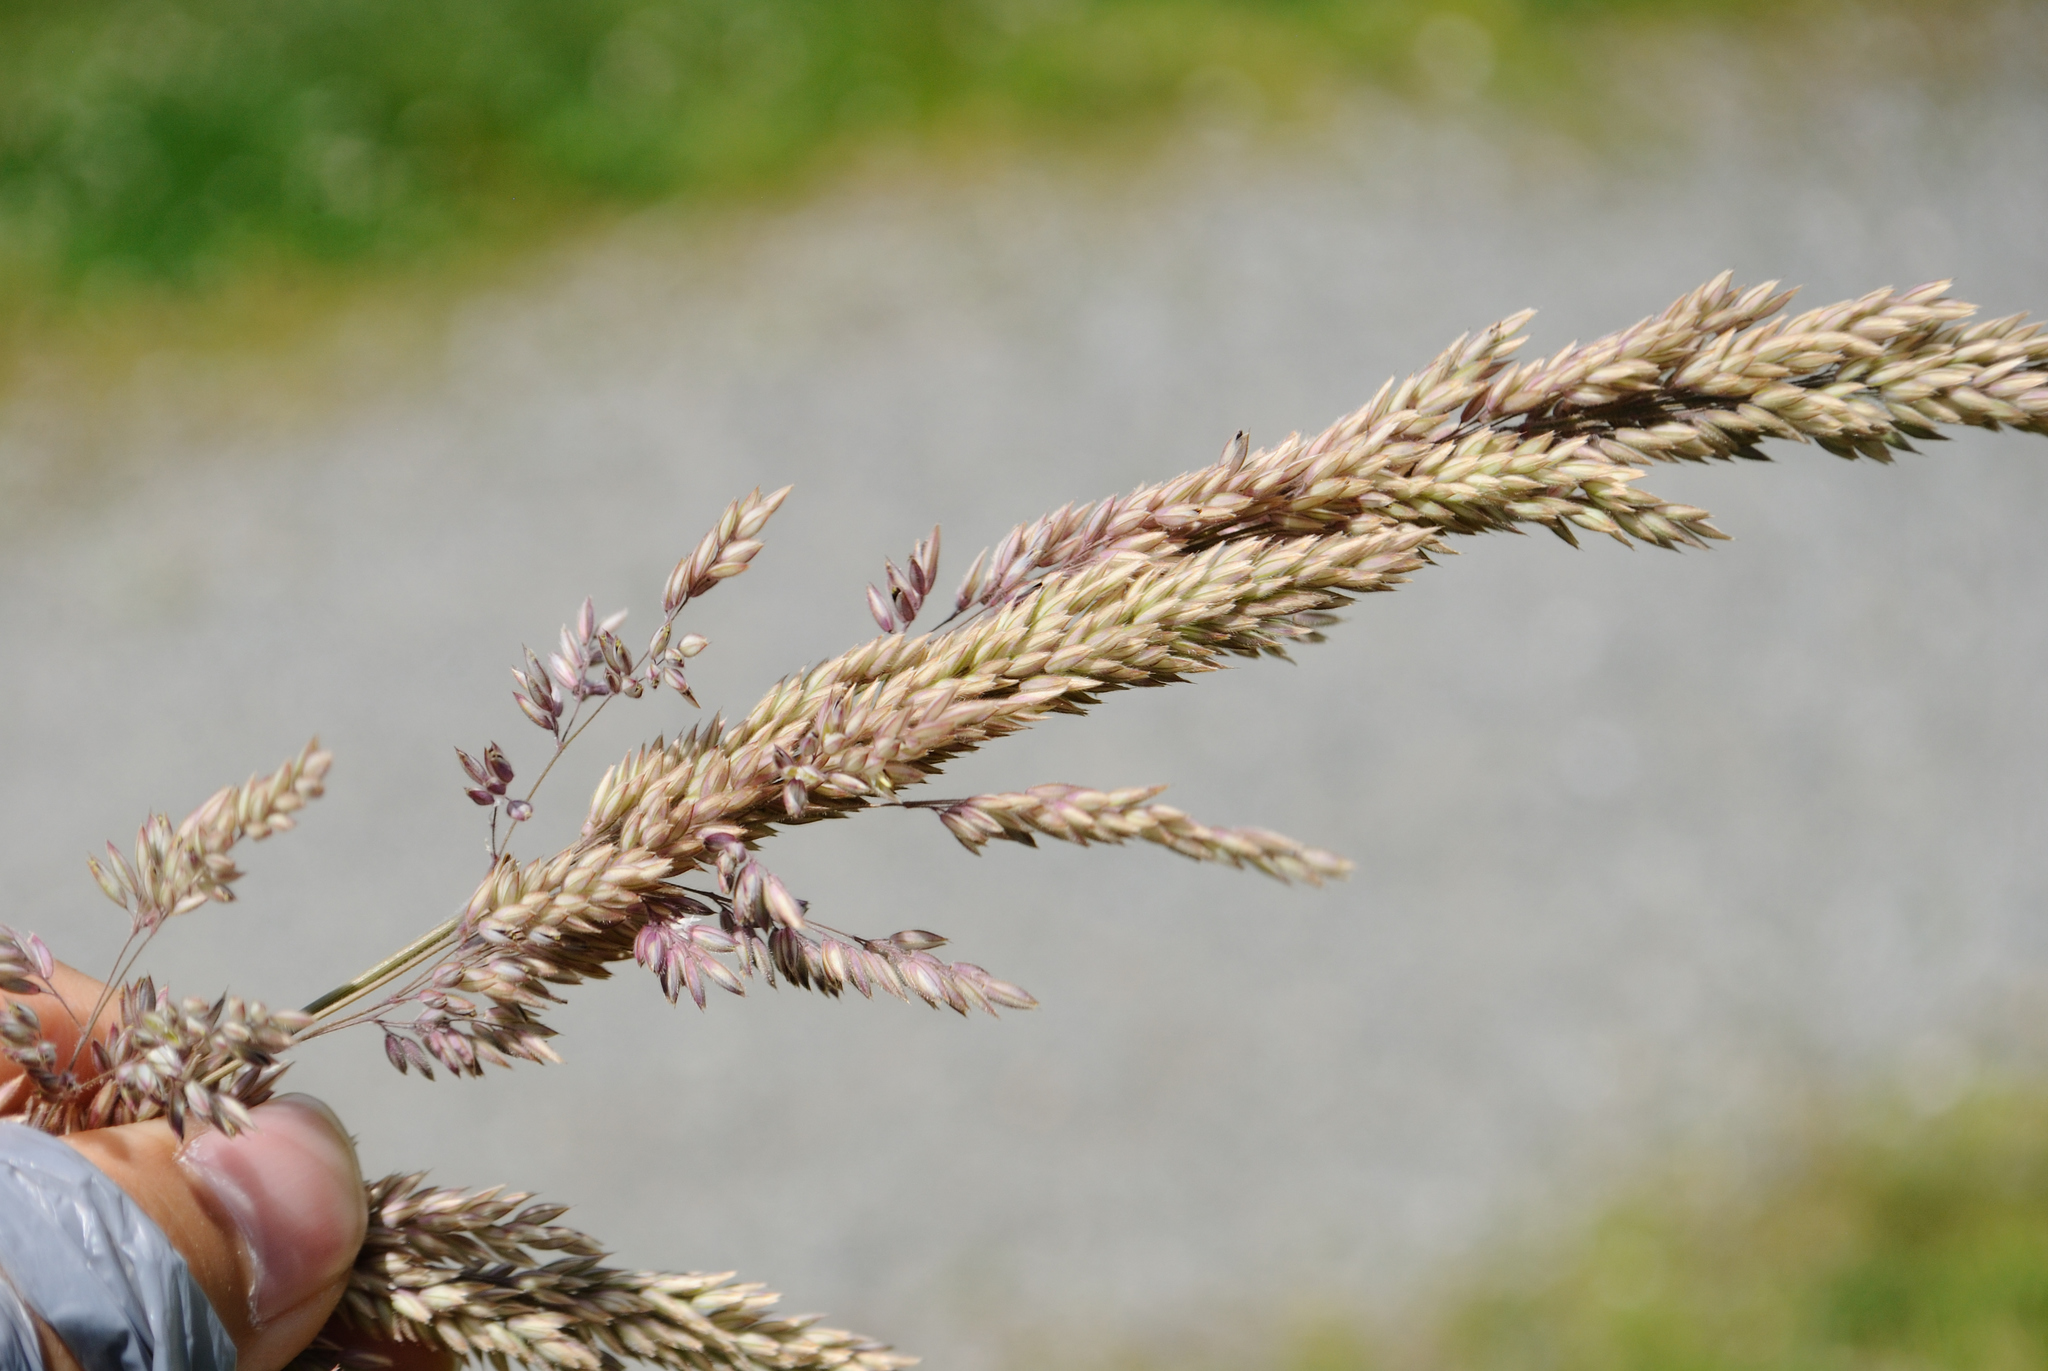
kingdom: Plantae
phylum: Tracheophyta
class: Liliopsida
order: Poales
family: Poaceae
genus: Holcus
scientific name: Holcus lanatus
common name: Yorkshire-fog
